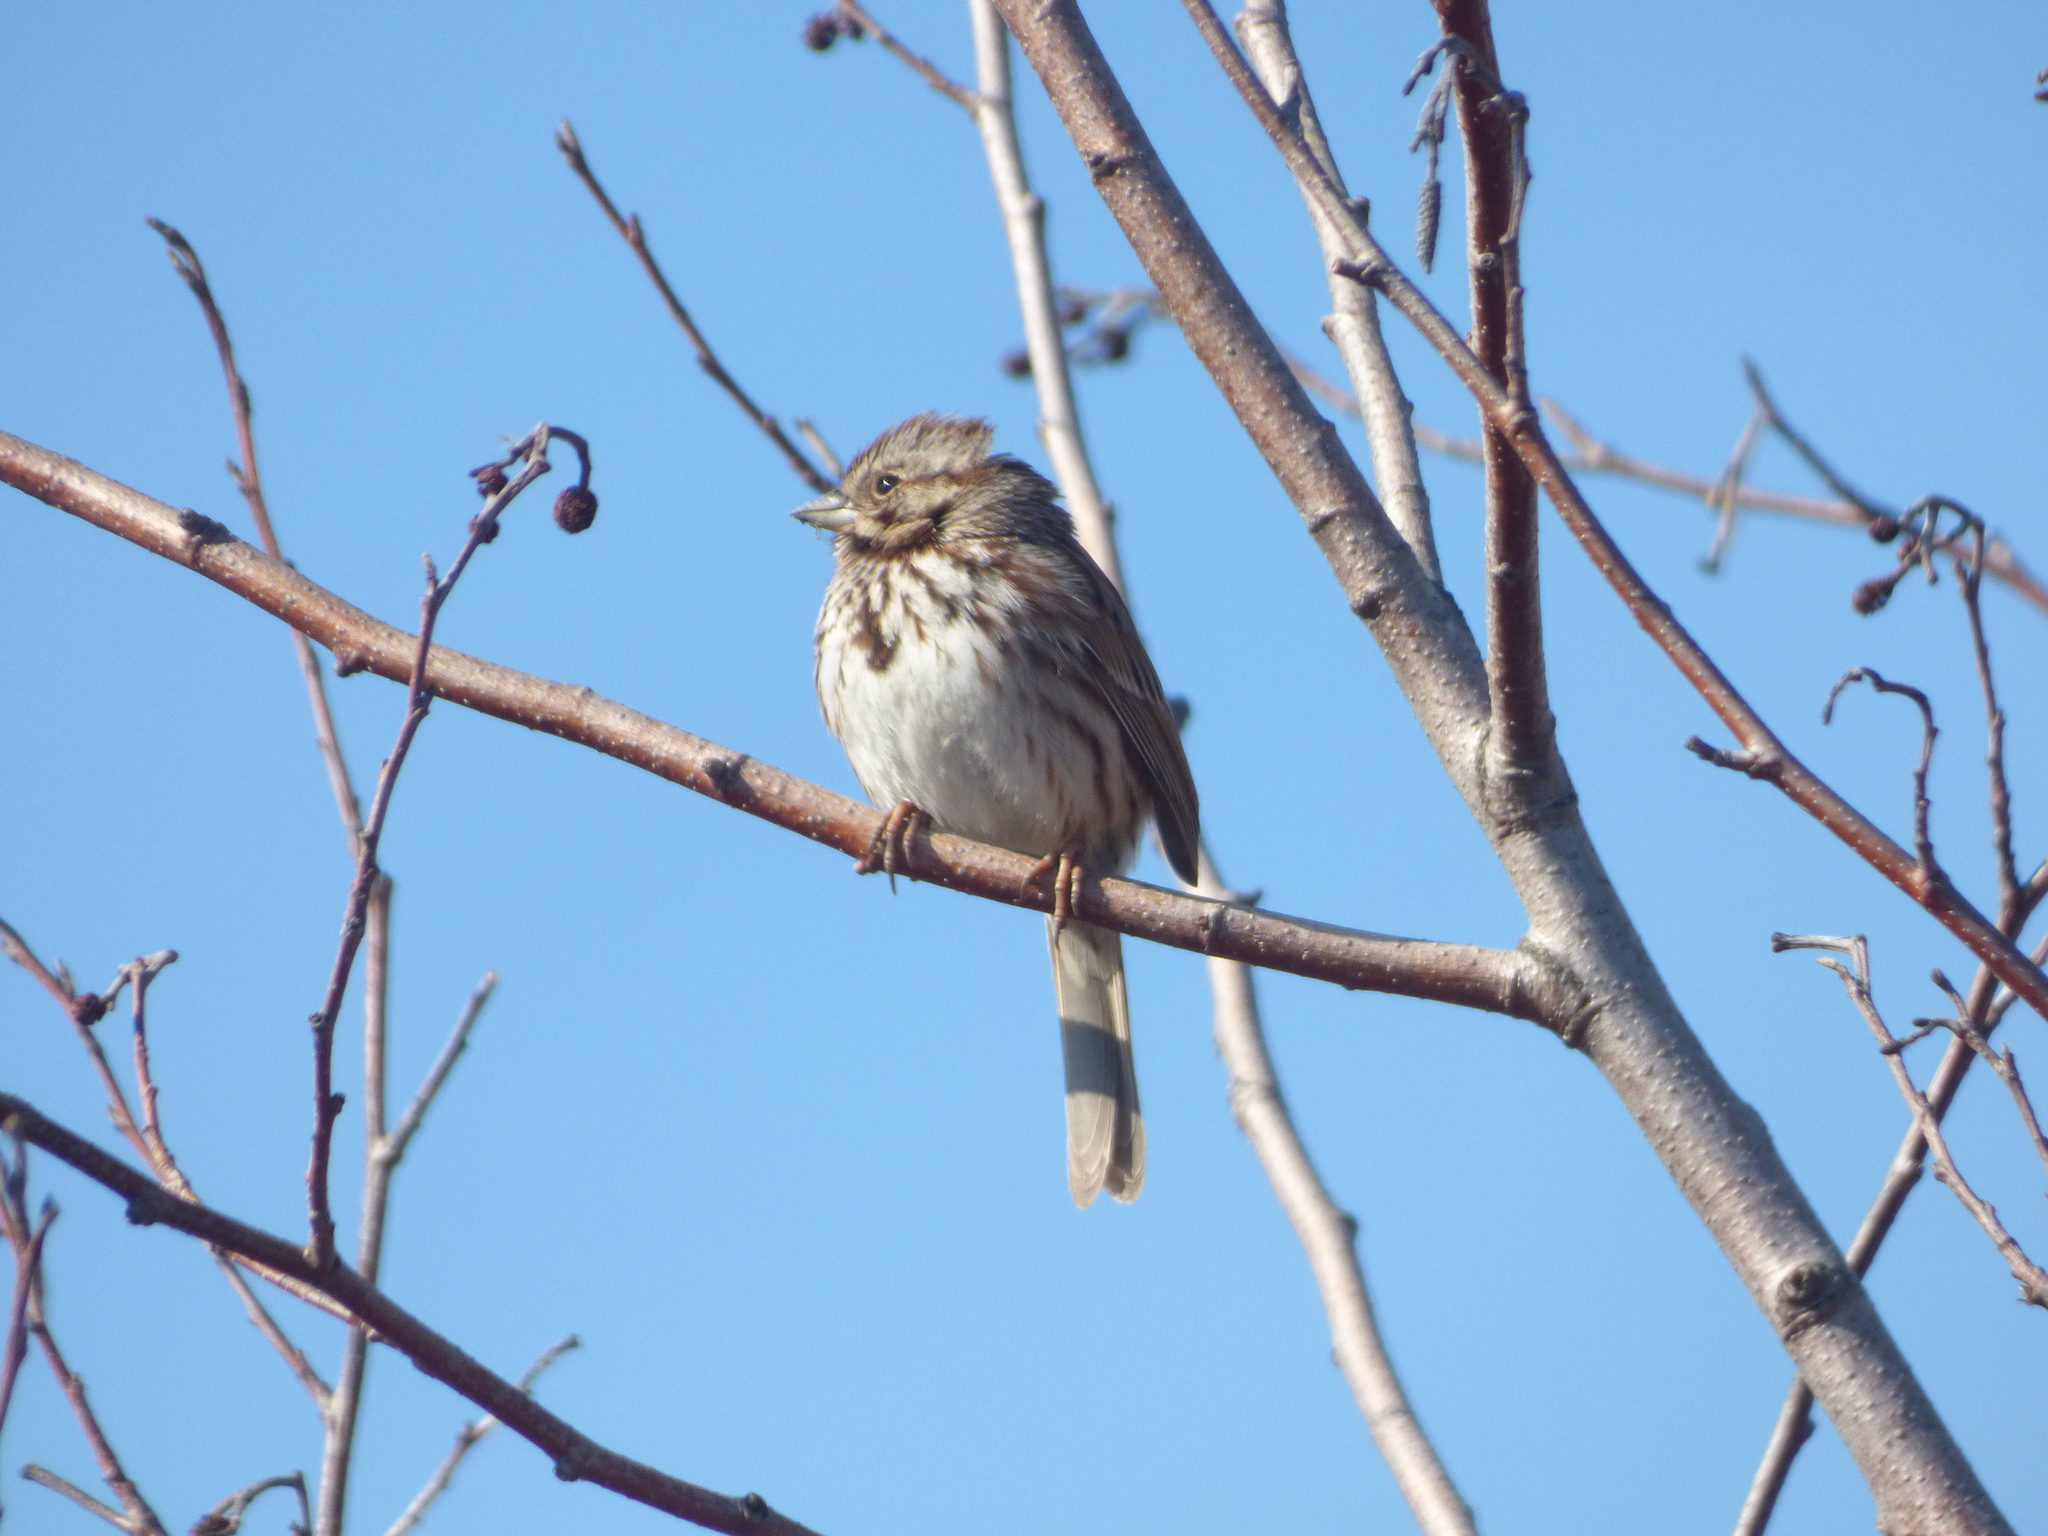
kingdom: Animalia
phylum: Chordata
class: Aves
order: Passeriformes
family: Passerellidae
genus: Melospiza
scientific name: Melospiza melodia
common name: Song sparrow
